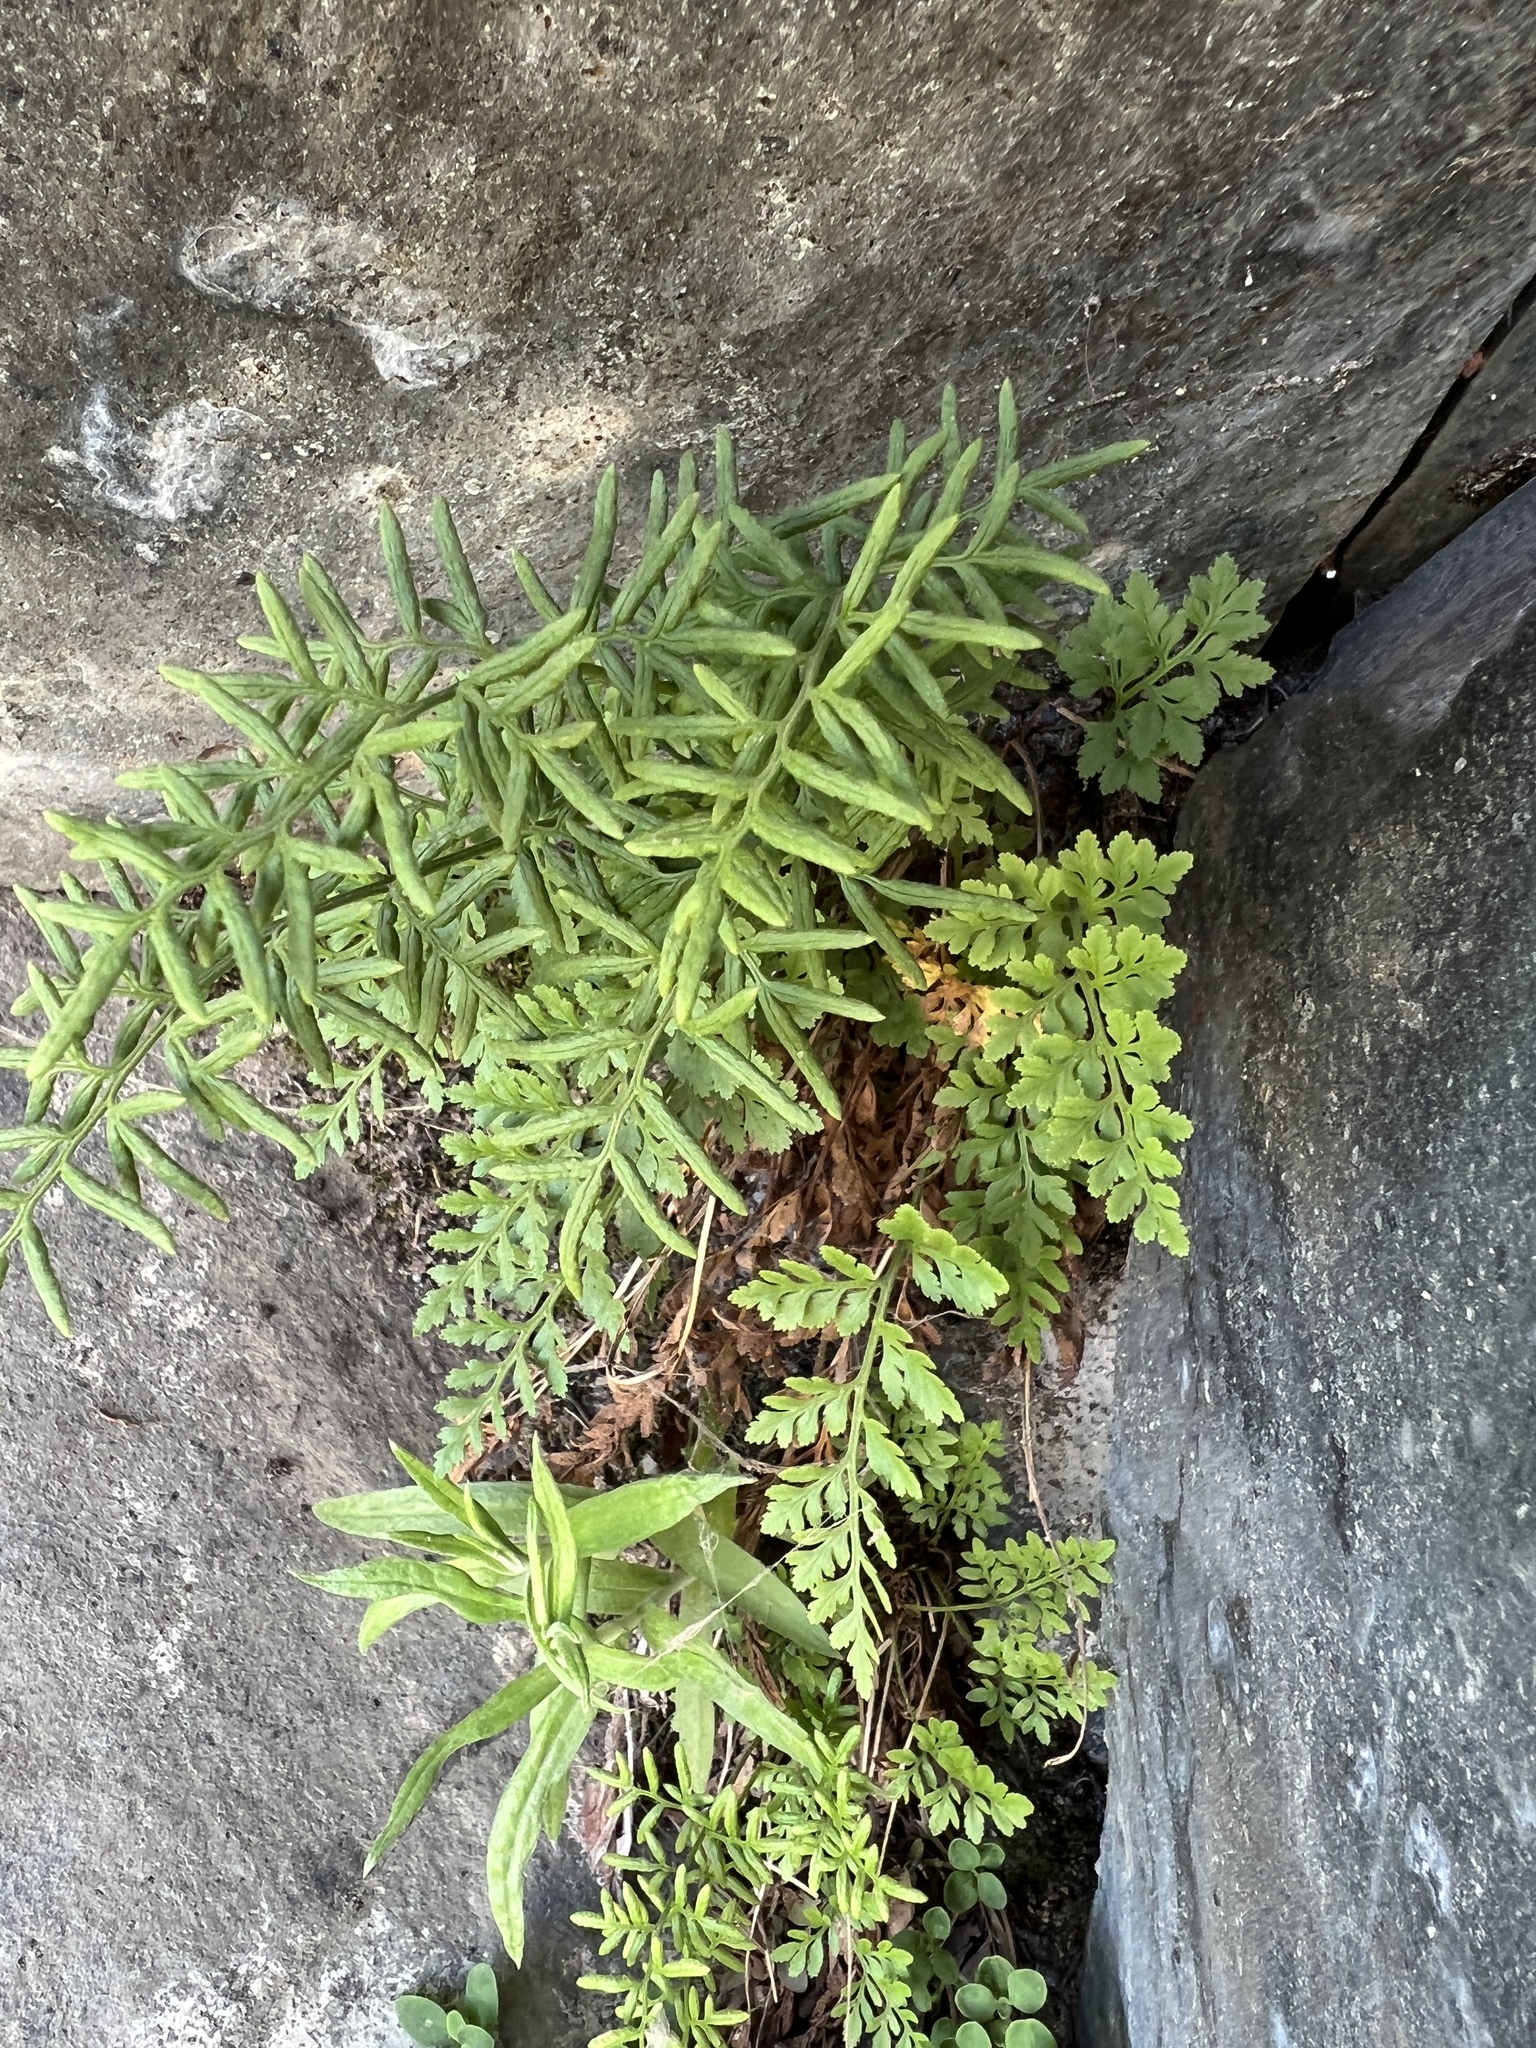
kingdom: Plantae
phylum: Tracheophyta
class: Polypodiopsida
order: Polypodiales
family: Pteridaceae
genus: Cryptogramma
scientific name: Cryptogramma acrostichoides
